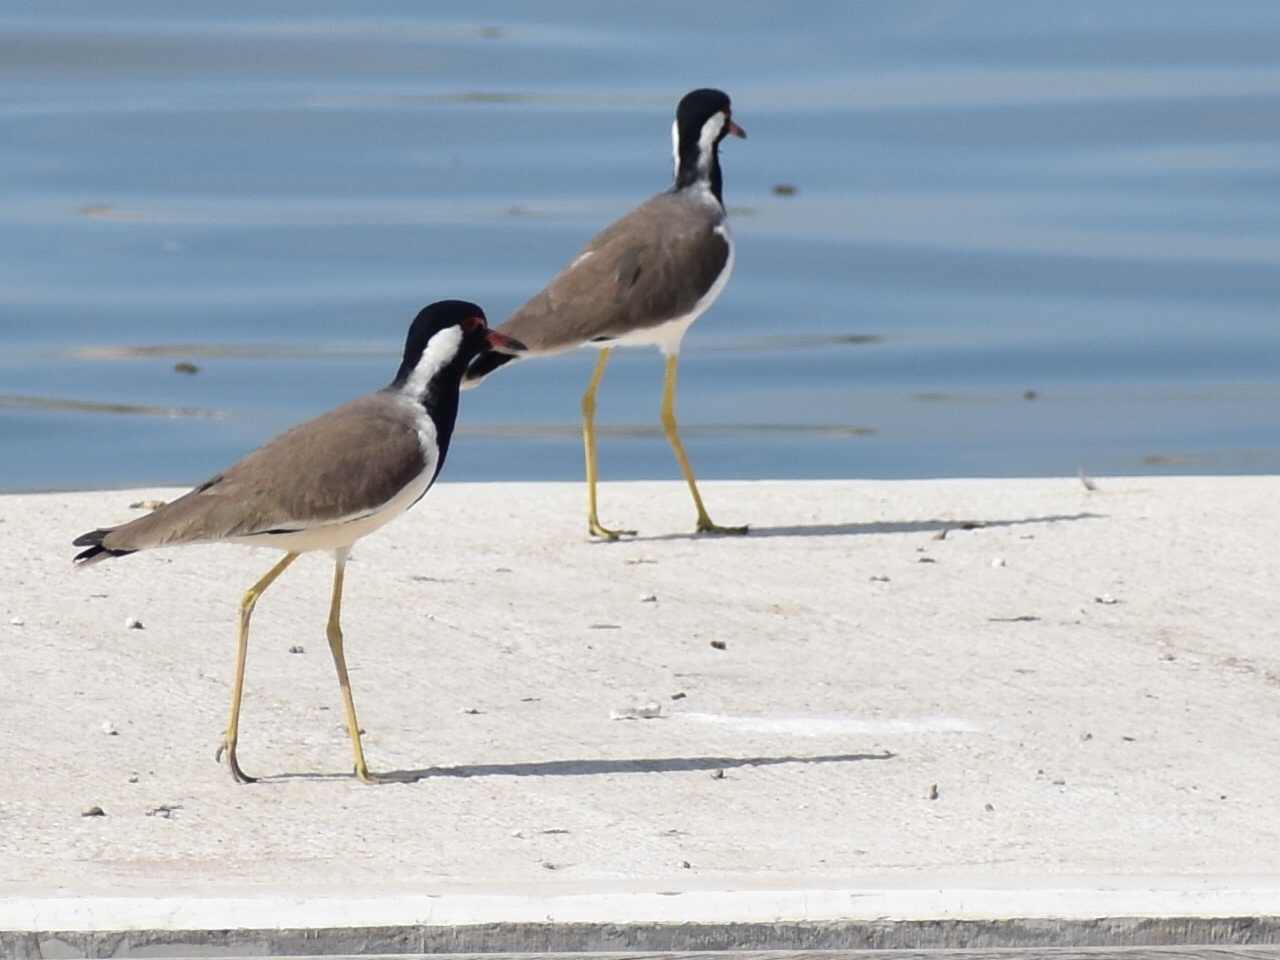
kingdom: Animalia
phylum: Chordata
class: Aves
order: Charadriiformes
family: Charadriidae
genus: Vanellus
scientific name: Vanellus indicus
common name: Red-wattled lapwing
